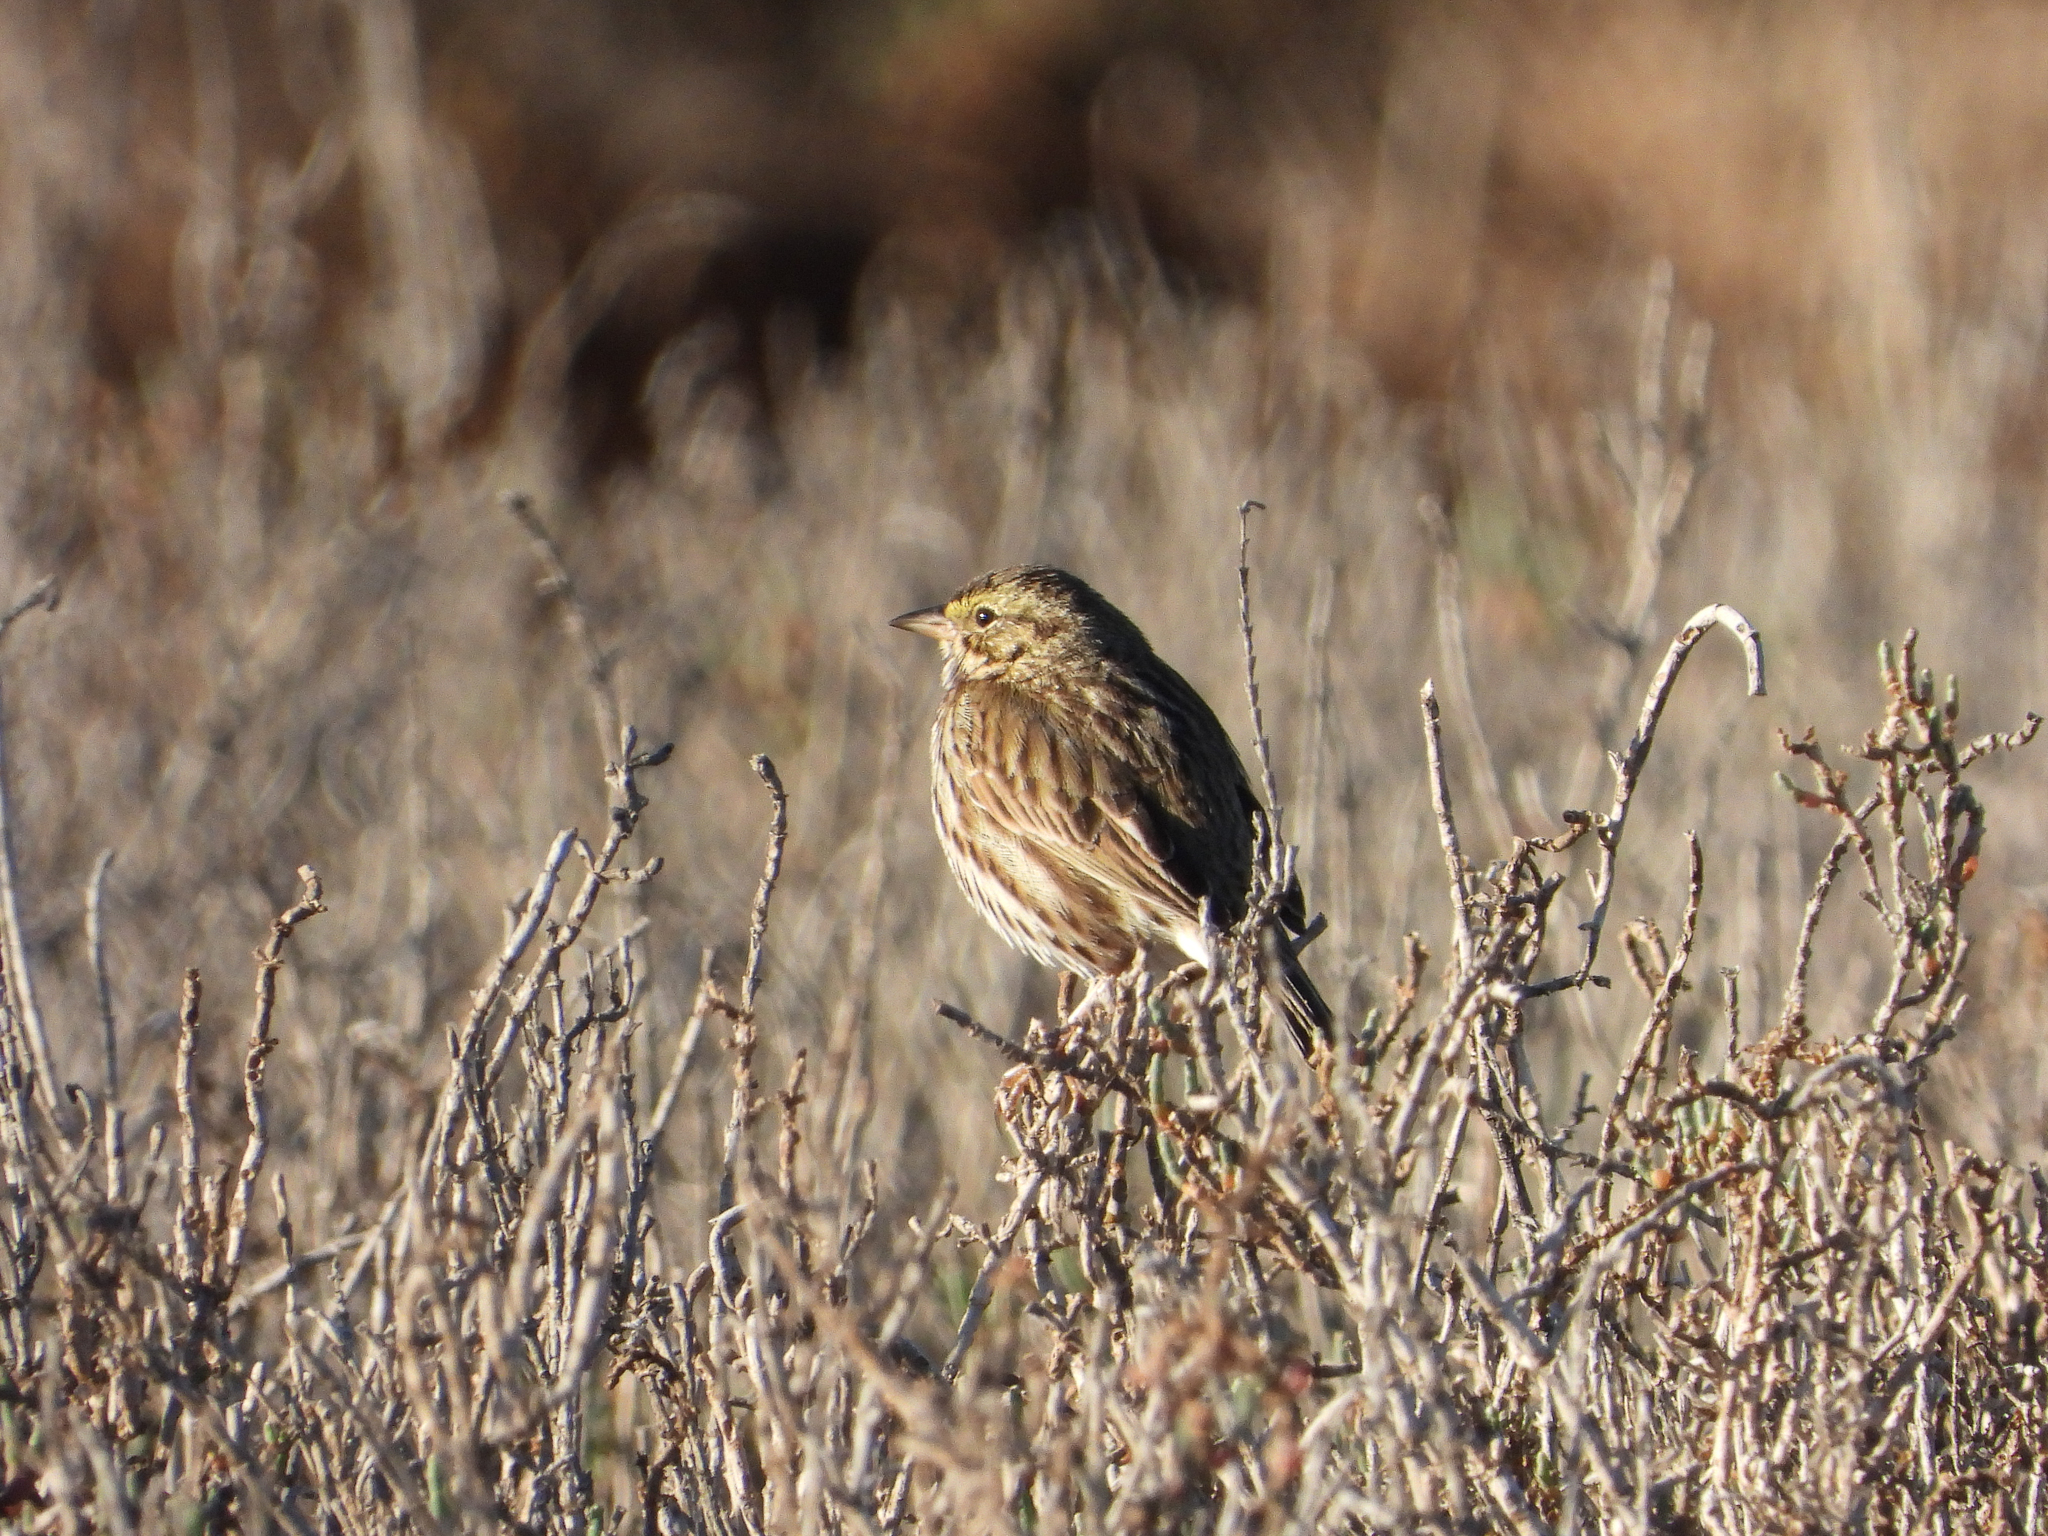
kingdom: Animalia
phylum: Chordata
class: Aves
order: Passeriformes
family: Passerellidae
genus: Passerculus
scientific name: Passerculus sandwichensis
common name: Savannah sparrow
